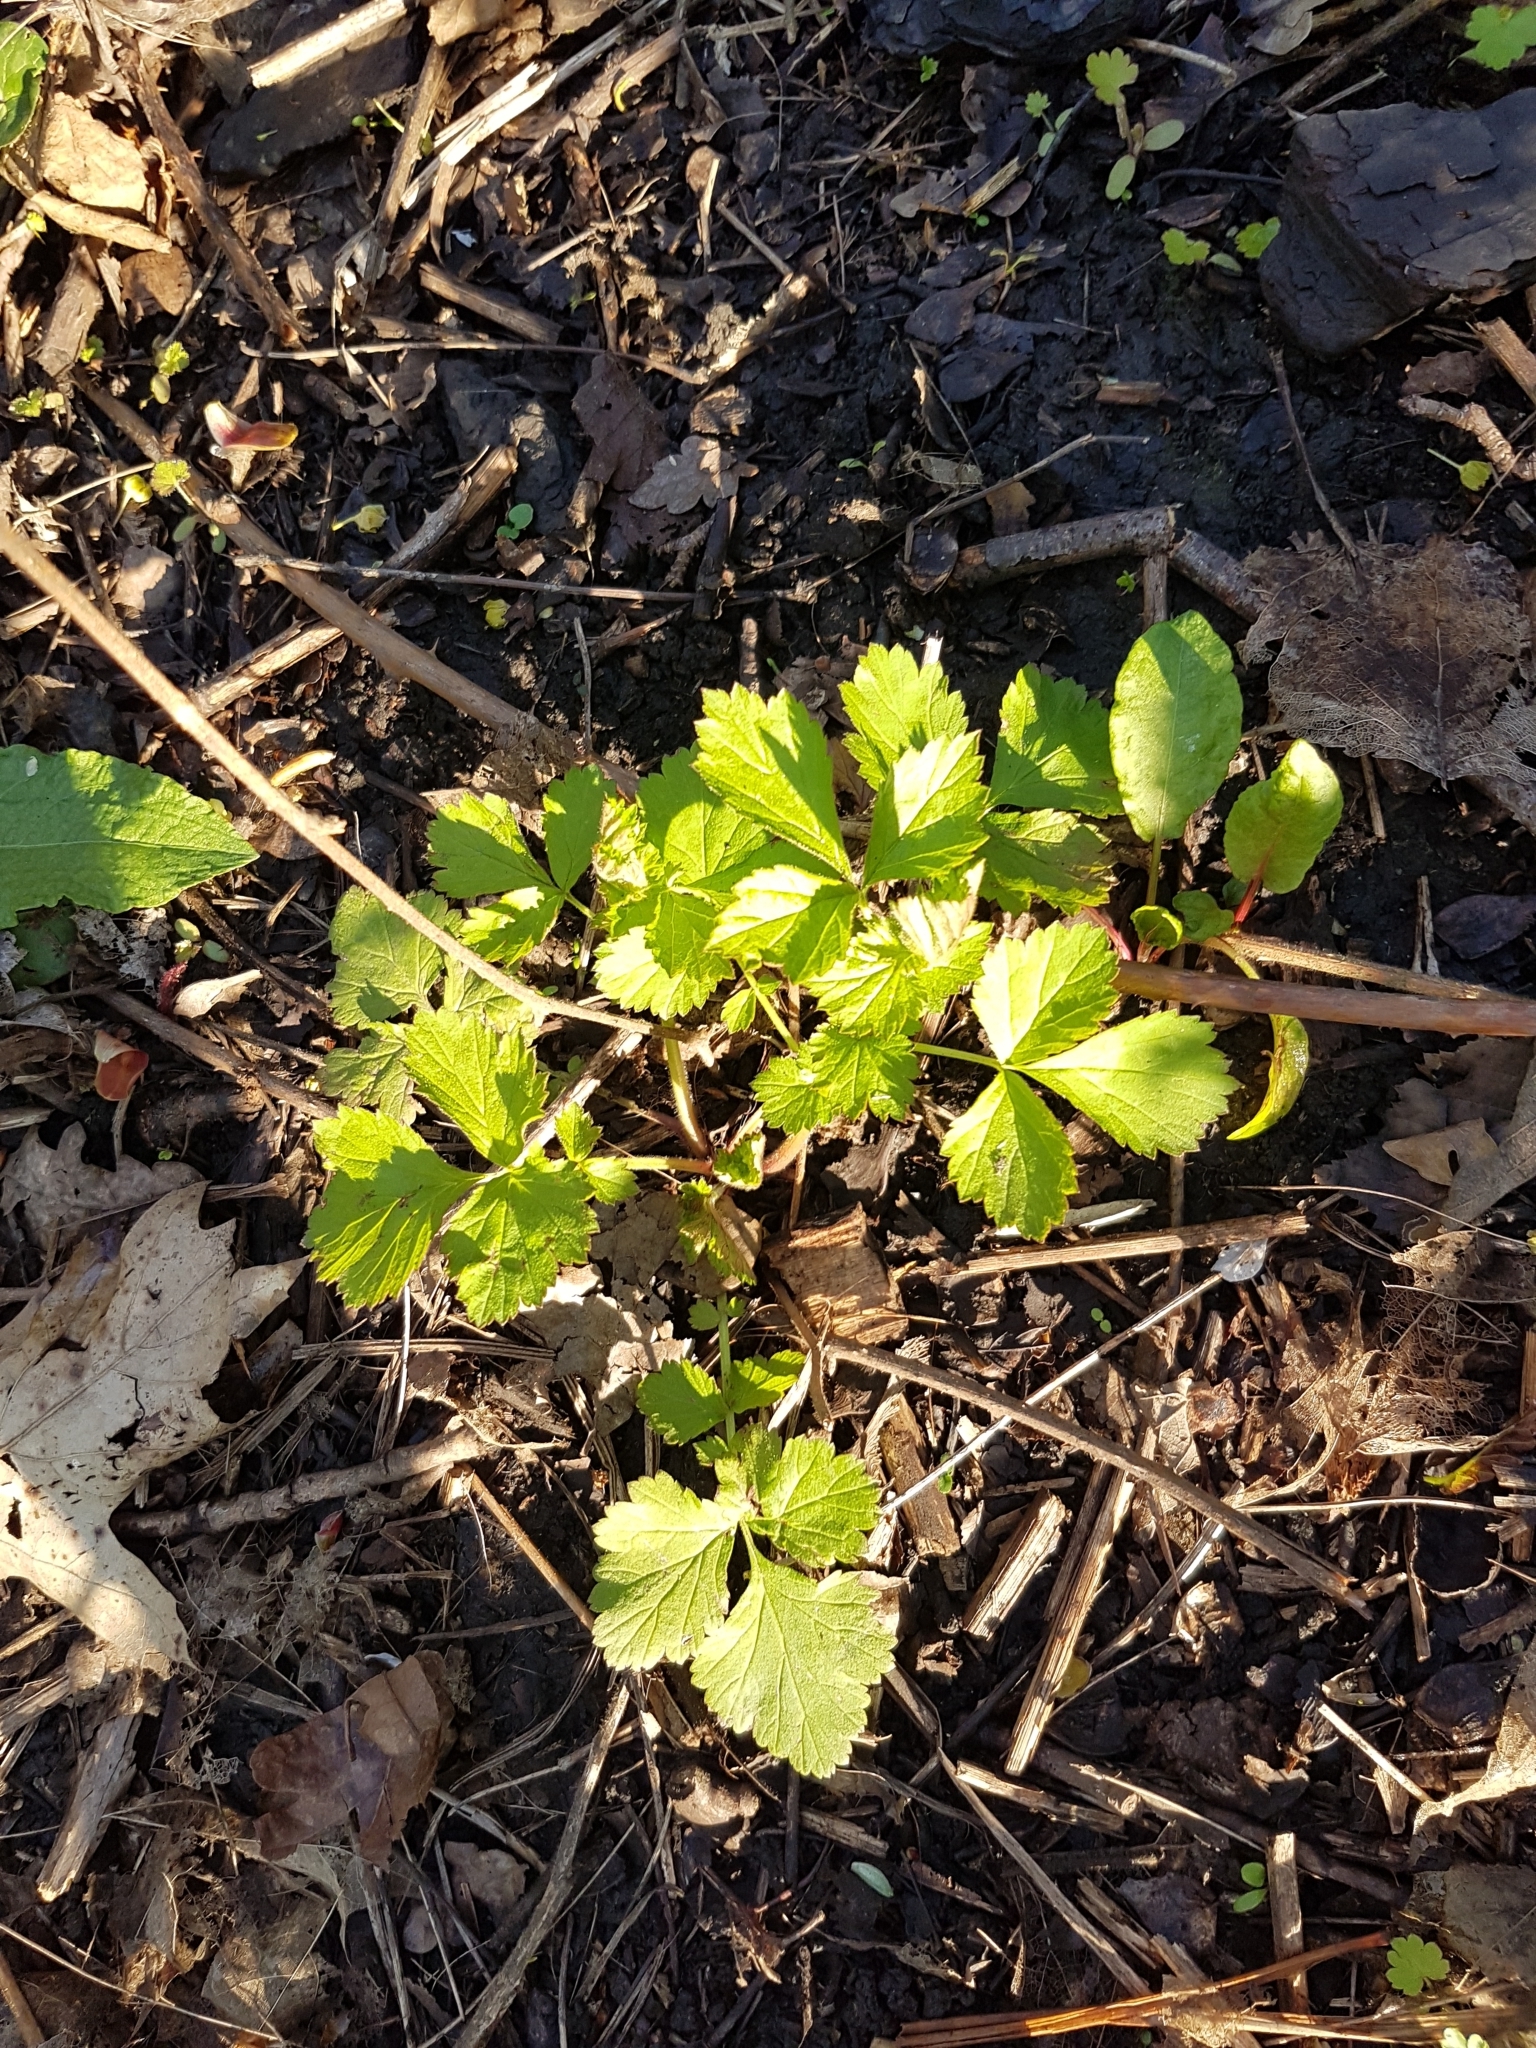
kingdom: Plantae
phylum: Tracheophyta
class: Magnoliopsida
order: Rosales
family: Rosaceae
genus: Geum
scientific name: Geum urbanum
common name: Wood avens
